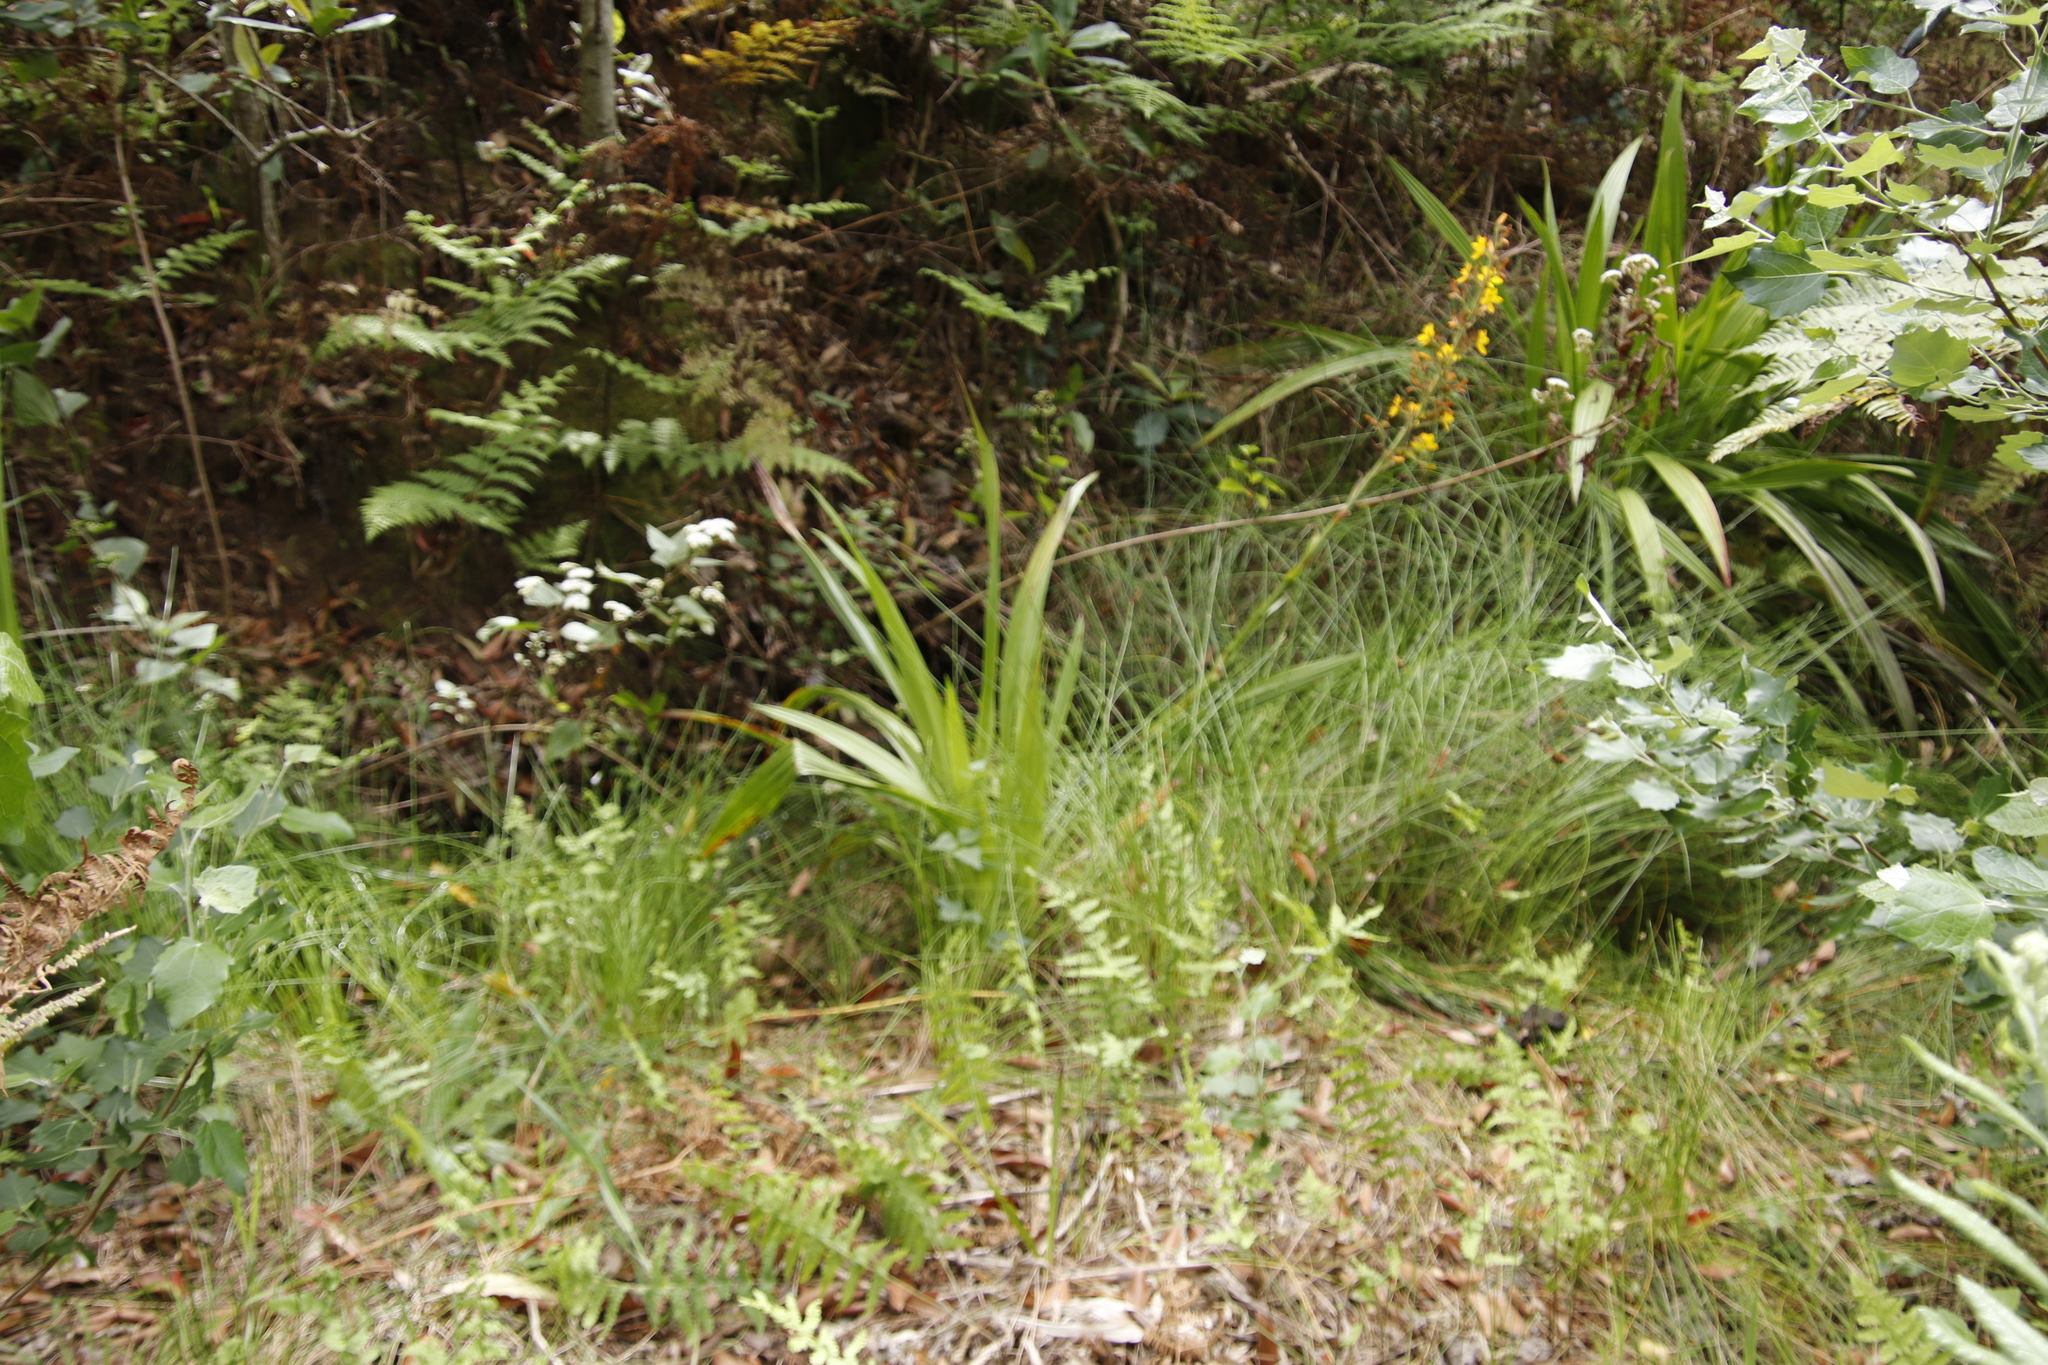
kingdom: Plantae
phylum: Tracheophyta
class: Liliopsida
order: Commelinales
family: Haemodoraceae
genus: Wachendorfia
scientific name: Wachendorfia thyrsiflora
